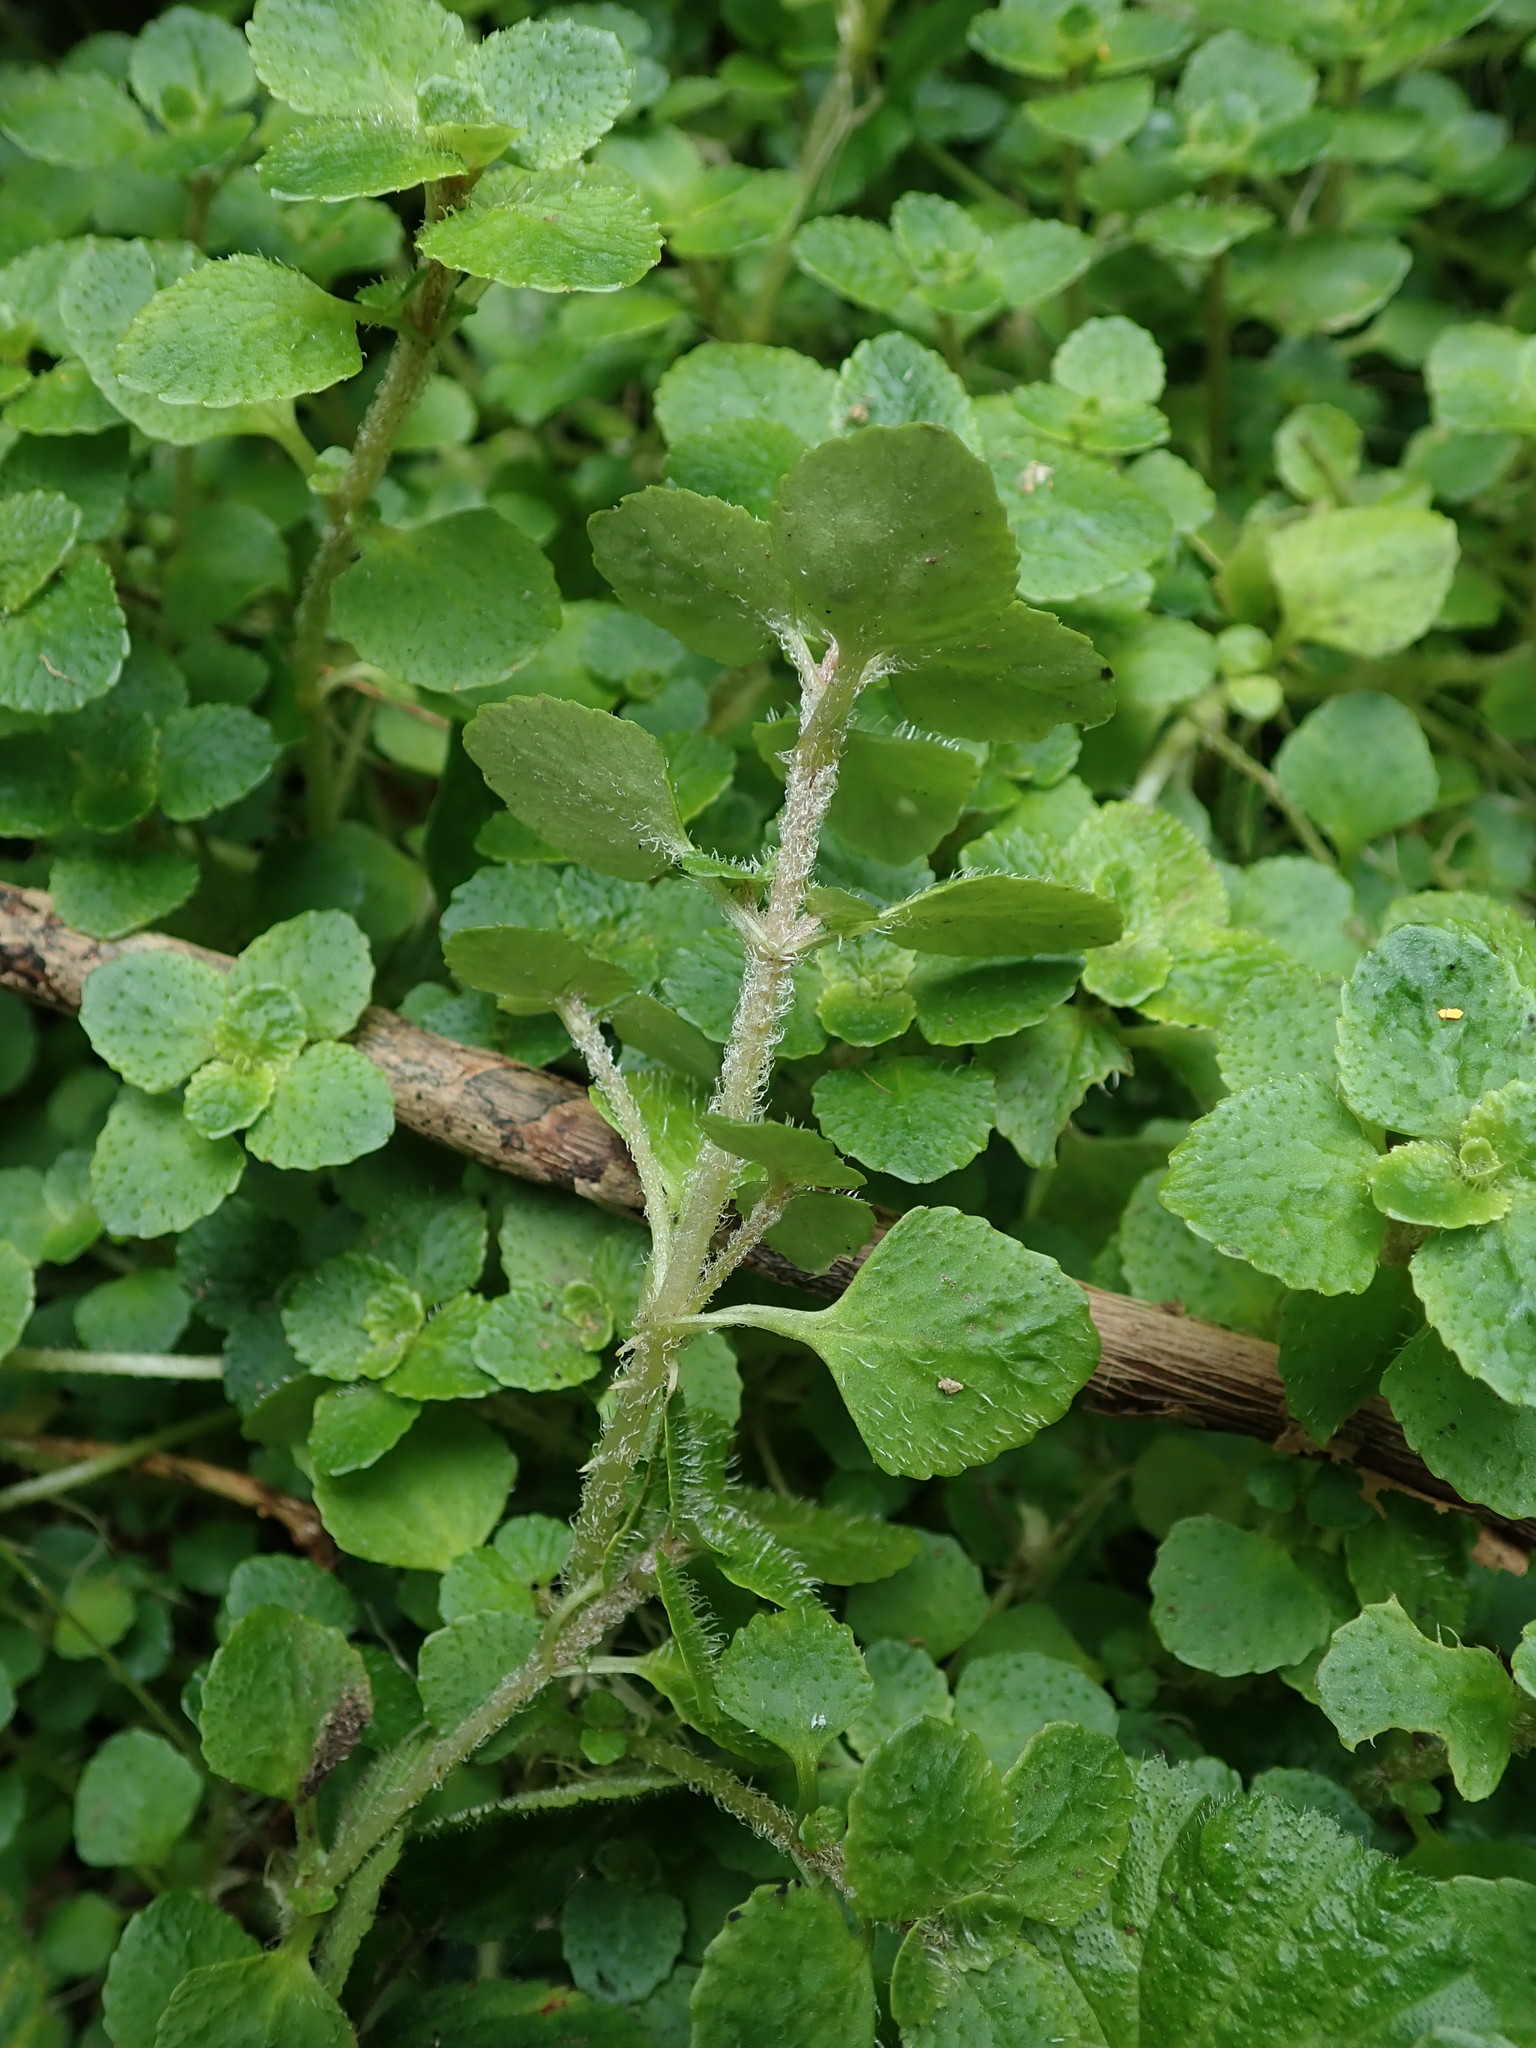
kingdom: Plantae
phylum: Tracheophyta
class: Magnoliopsida
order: Saxifragales
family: Saxifragaceae
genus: Chrysosplenium
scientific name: Chrysosplenium oppositifolium
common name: Opposite-leaved golden-saxifrage
